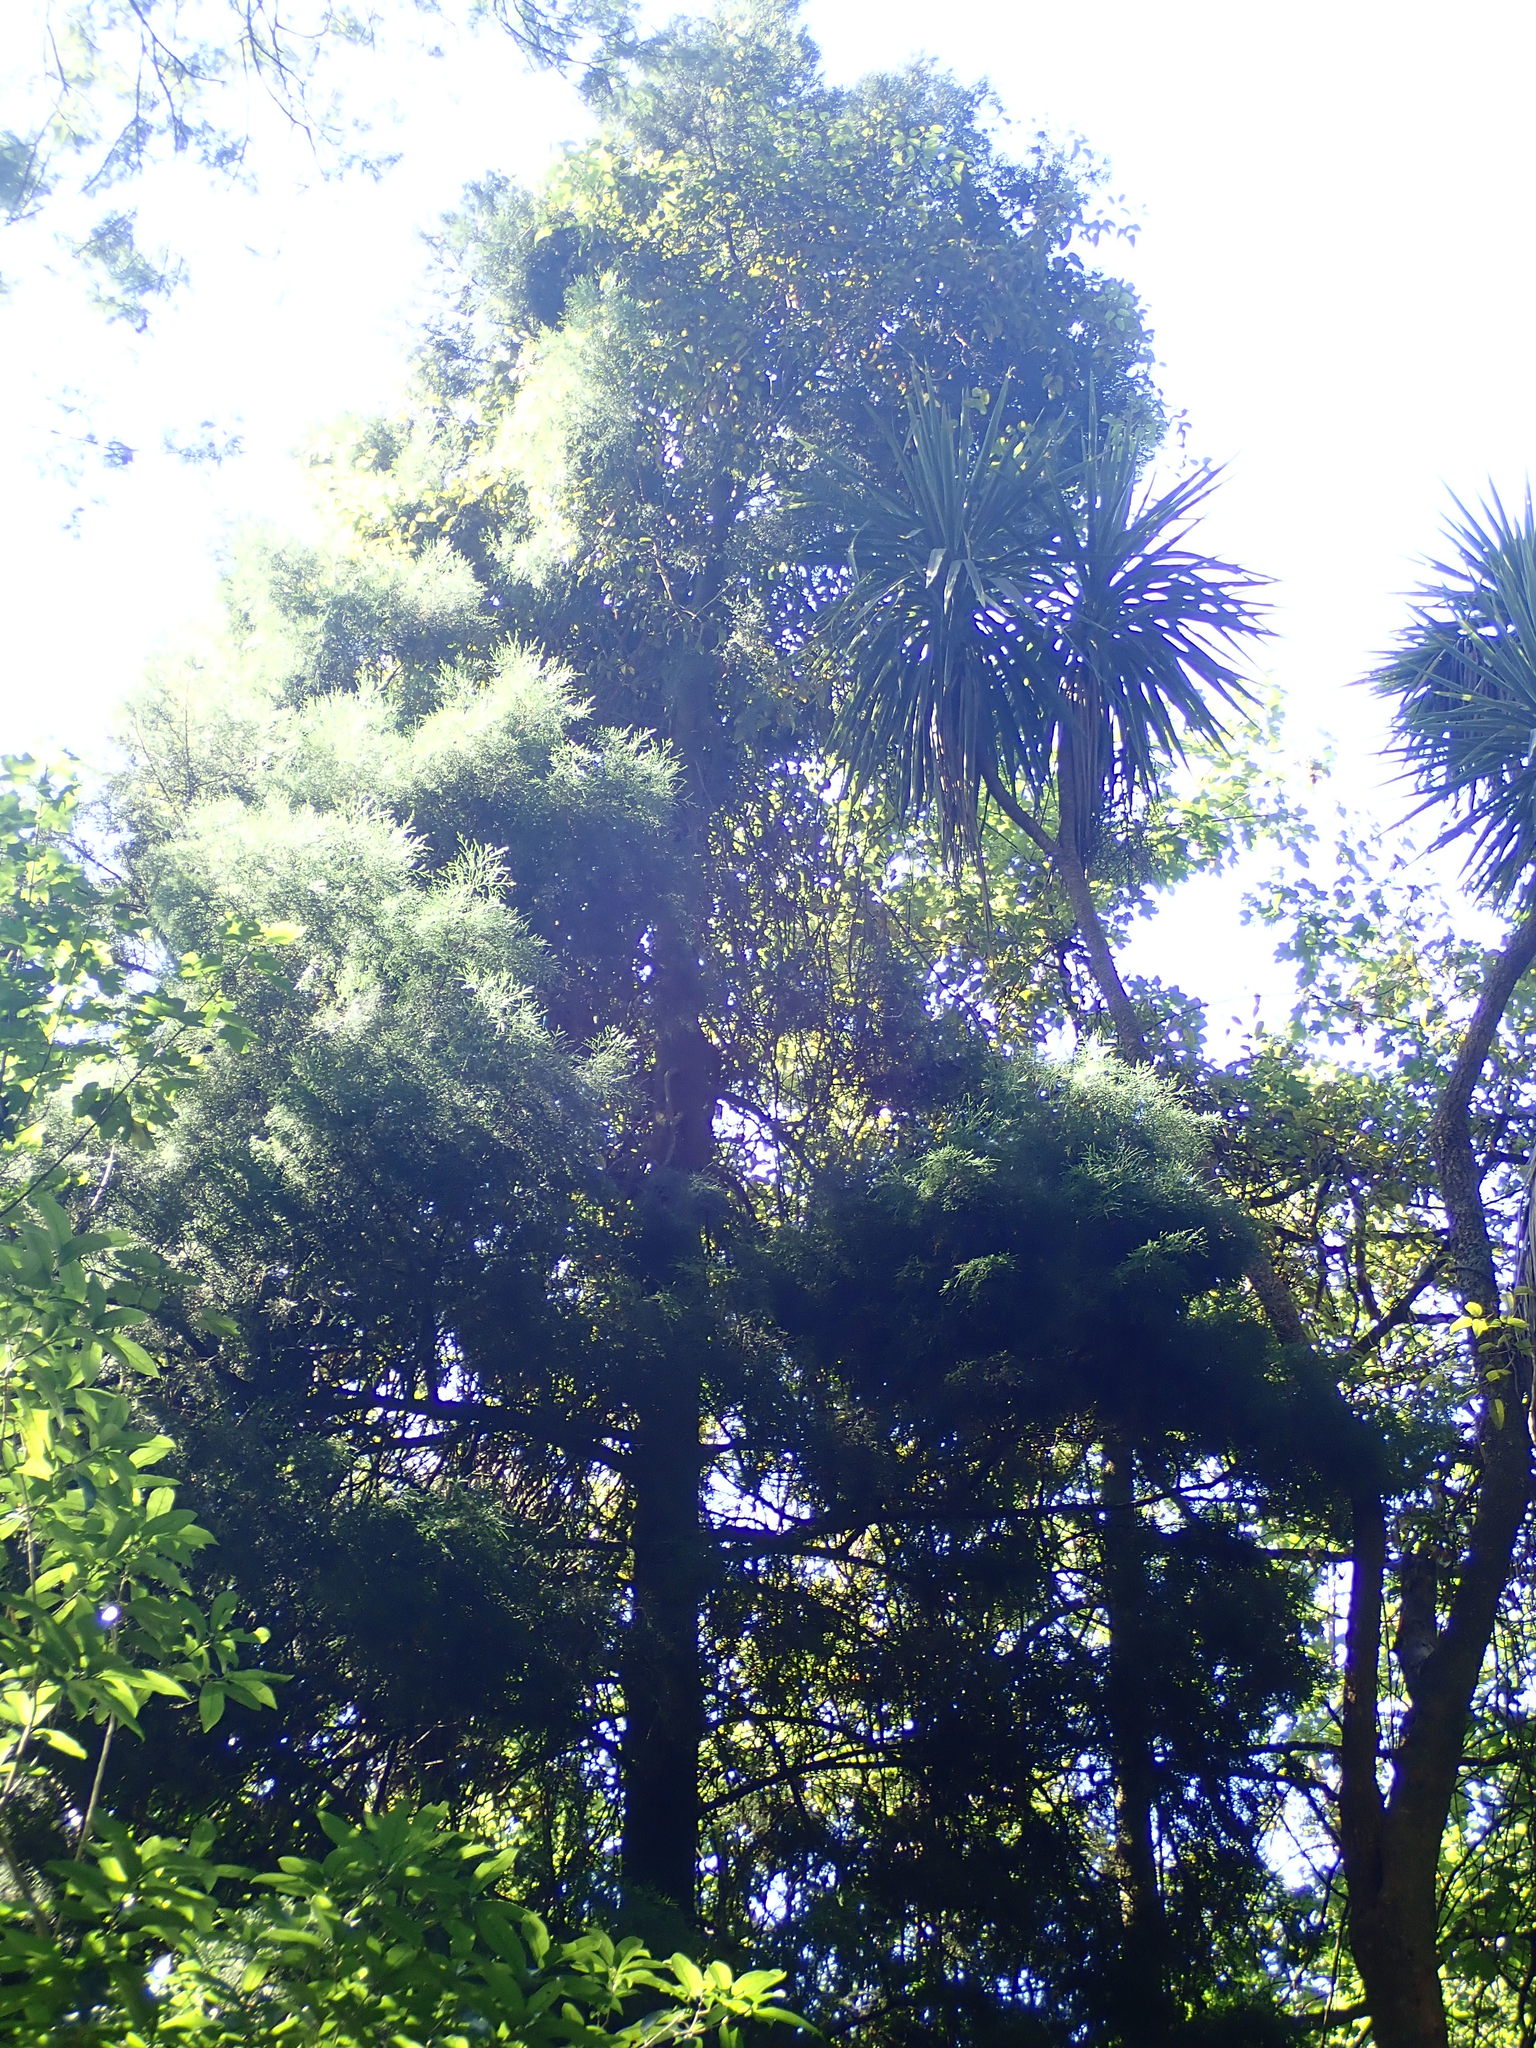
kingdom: Plantae
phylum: Tracheophyta
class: Pinopsida
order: Pinales
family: Podocarpaceae
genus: Dacrycarpus
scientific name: Dacrycarpus dacrydioides
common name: White pine
